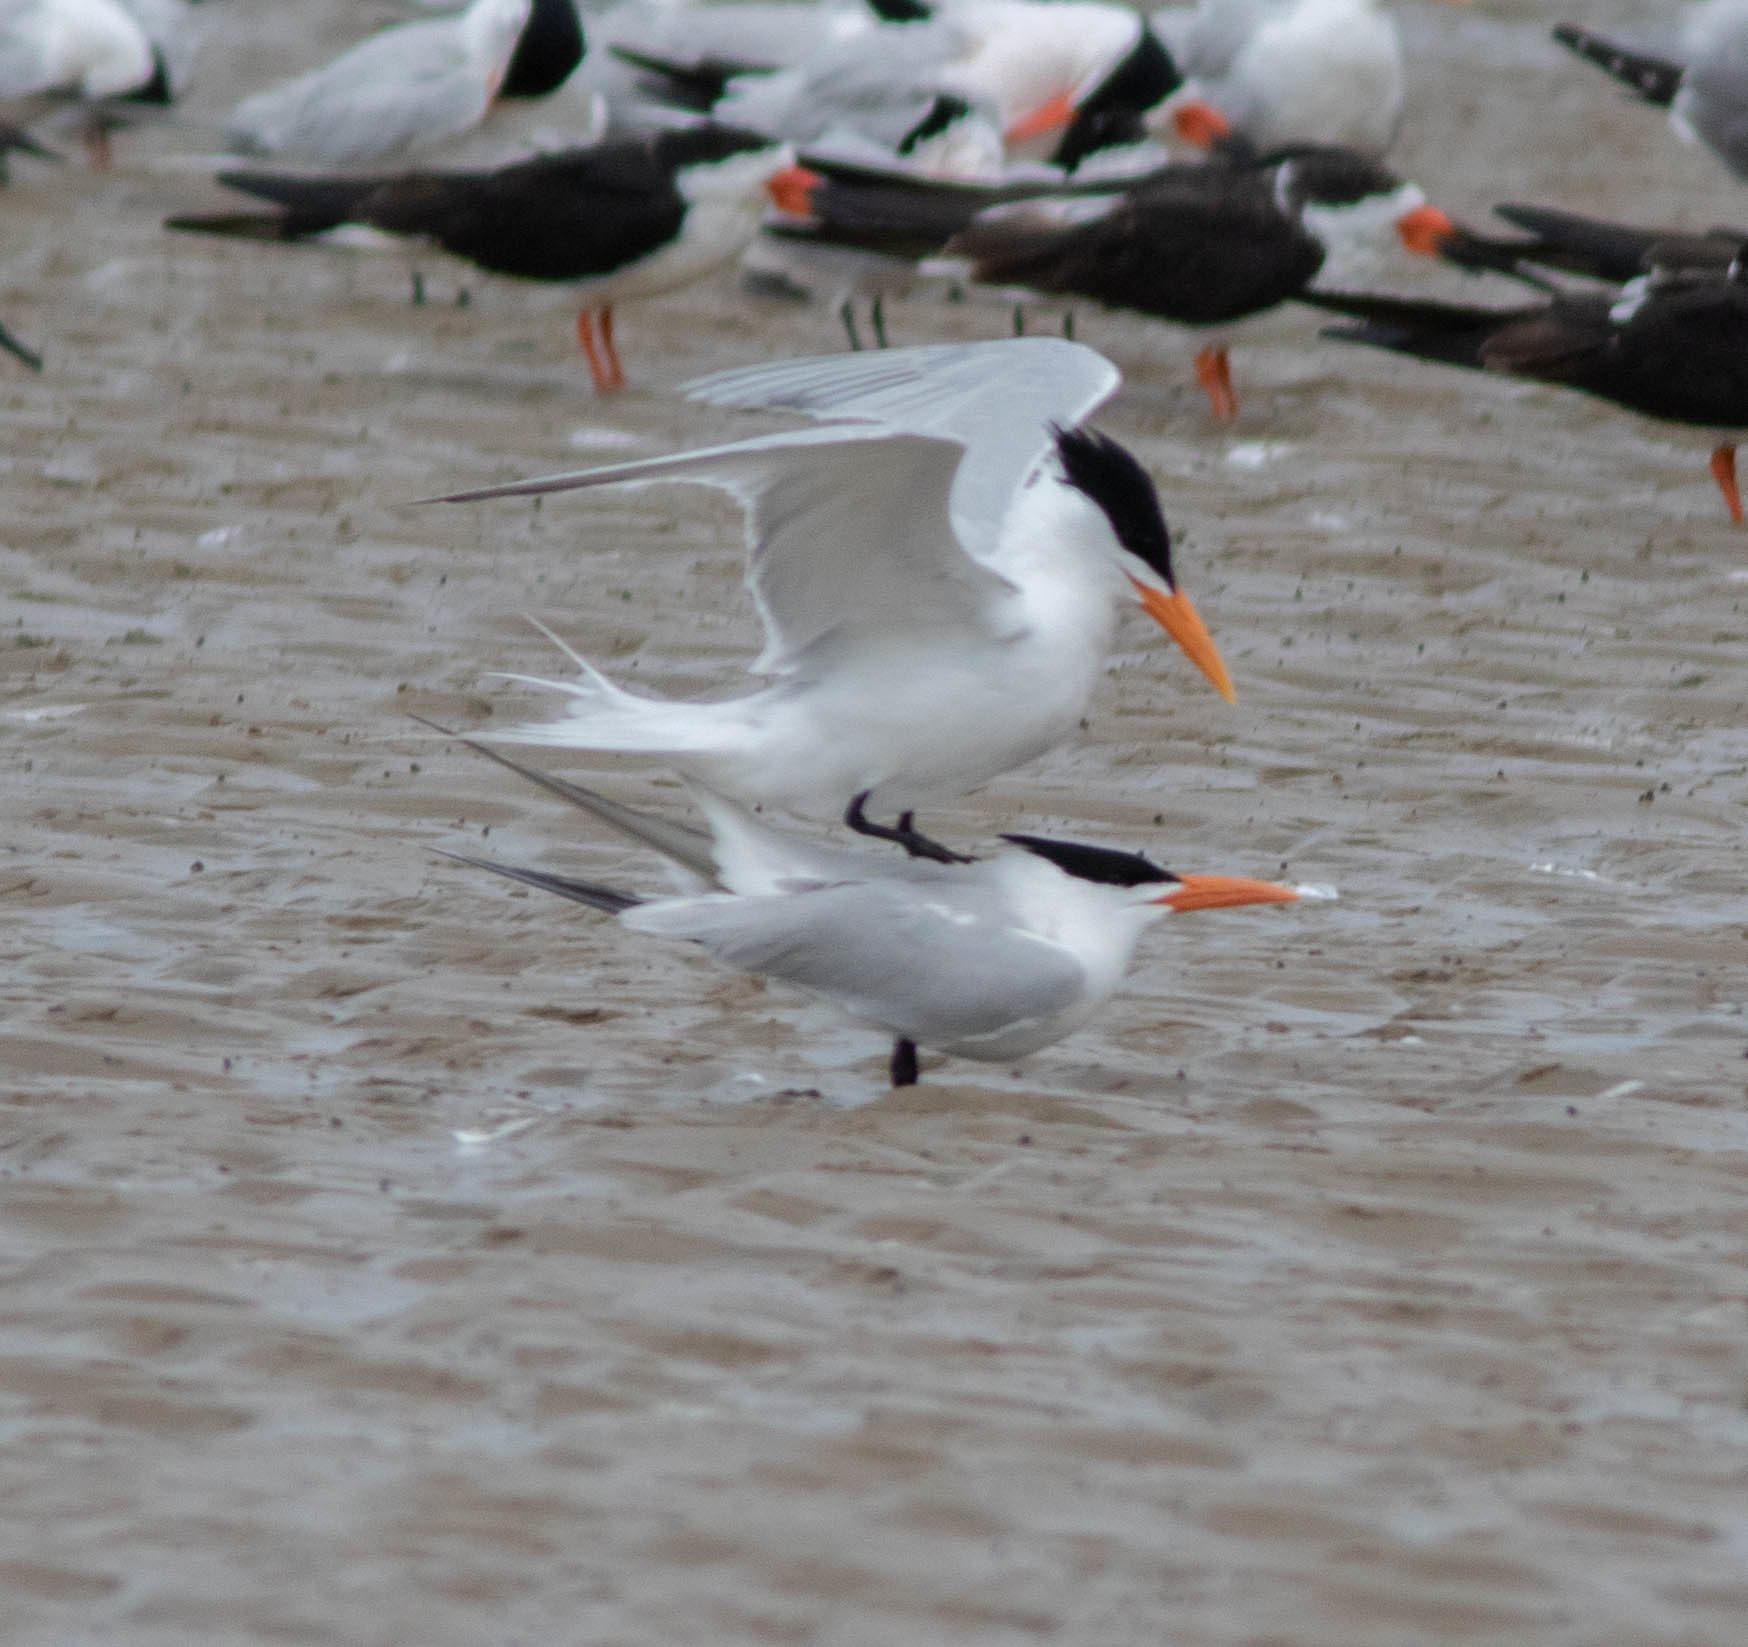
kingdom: Animalia
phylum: Chordata
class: Aves
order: Charadriiformes
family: Laridae
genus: Thalasseus
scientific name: Thalasseus maximus
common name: Royal tern
